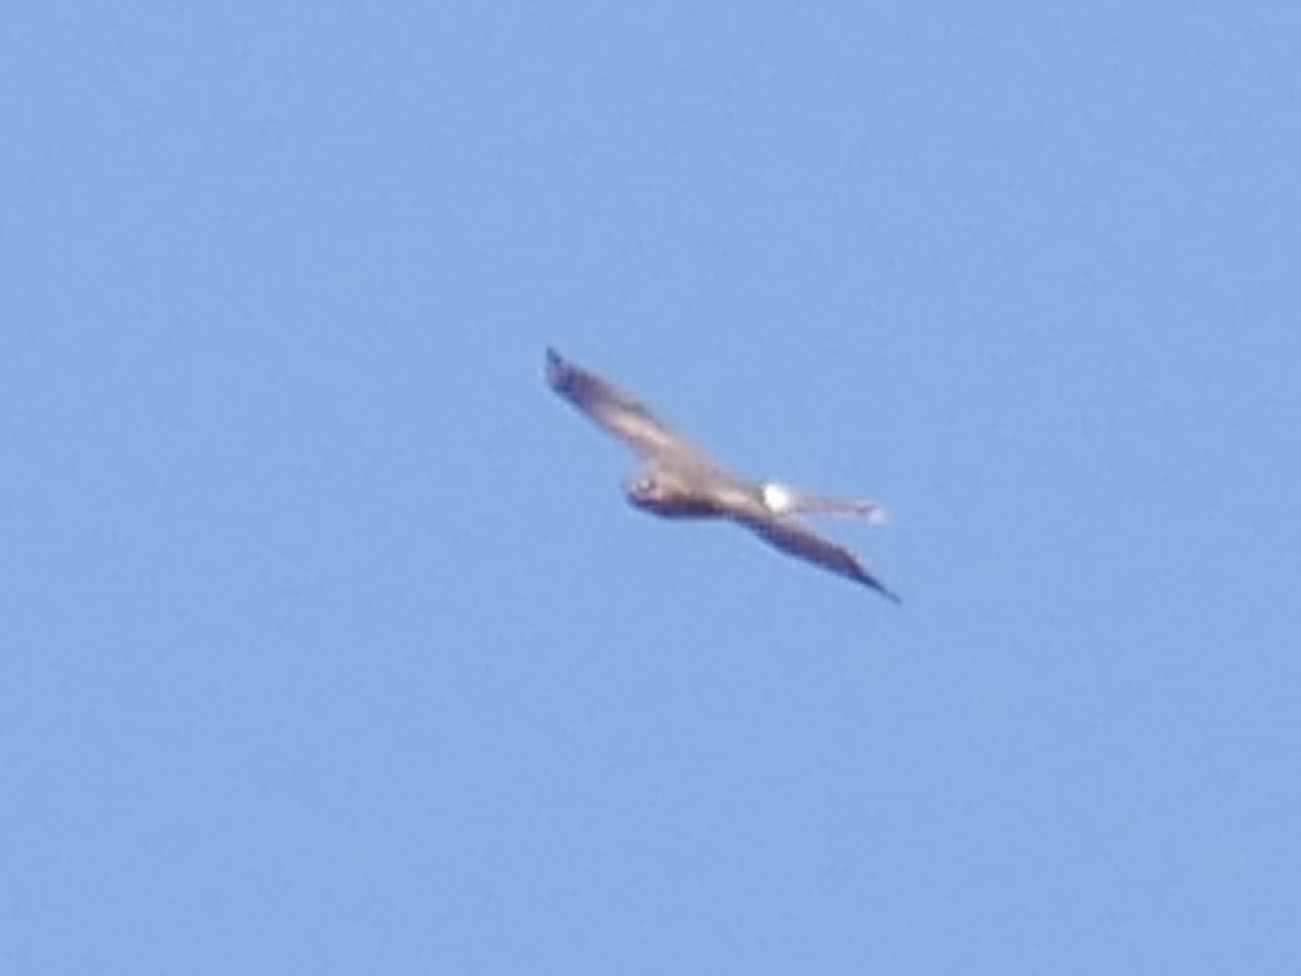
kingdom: Animalia
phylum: Chordata
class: Aves
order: Accipitriformes
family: Accipitridae
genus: Circus
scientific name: Circus pygargus
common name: Montagu's harrier
